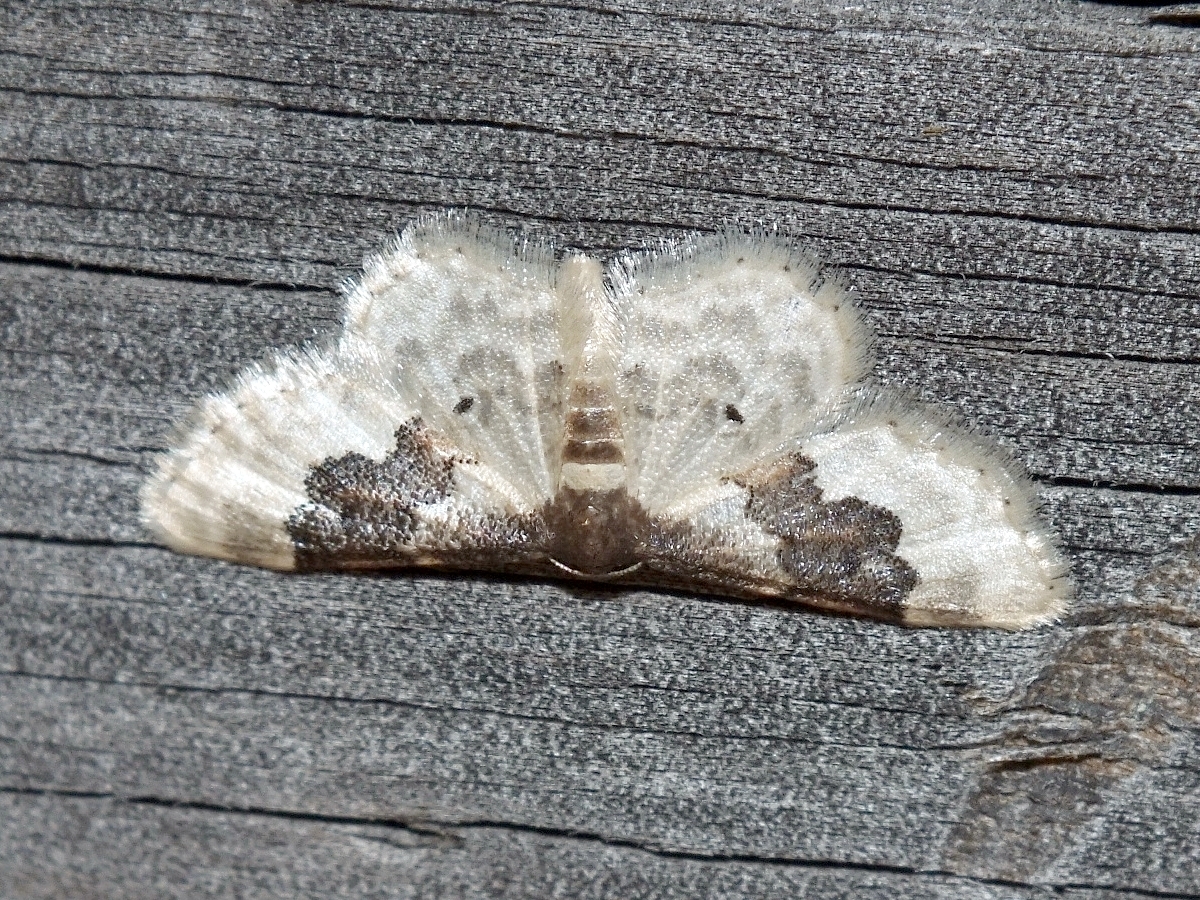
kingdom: Animalia
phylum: Arthropoda
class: Insecta
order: Lepidoptera
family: Geometridae
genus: Idaea
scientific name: Idaea rusticata
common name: Least carpet
